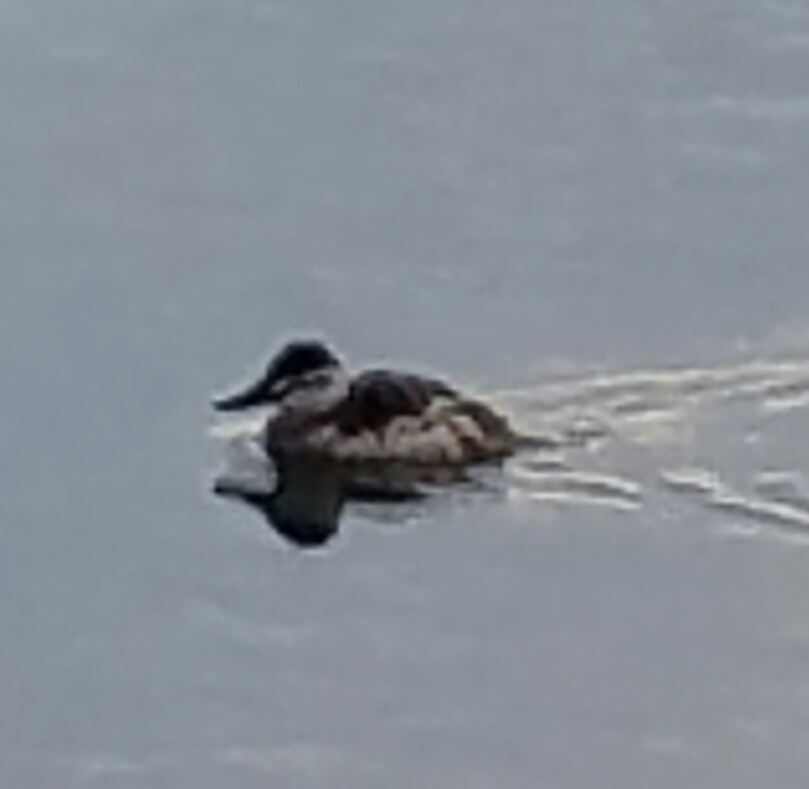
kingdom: Animalia
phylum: Chordata
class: Aves
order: Anseriformes
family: Anatidae
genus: Oxyura
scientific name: Oxyura jamaicensis
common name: Ruddy duck
